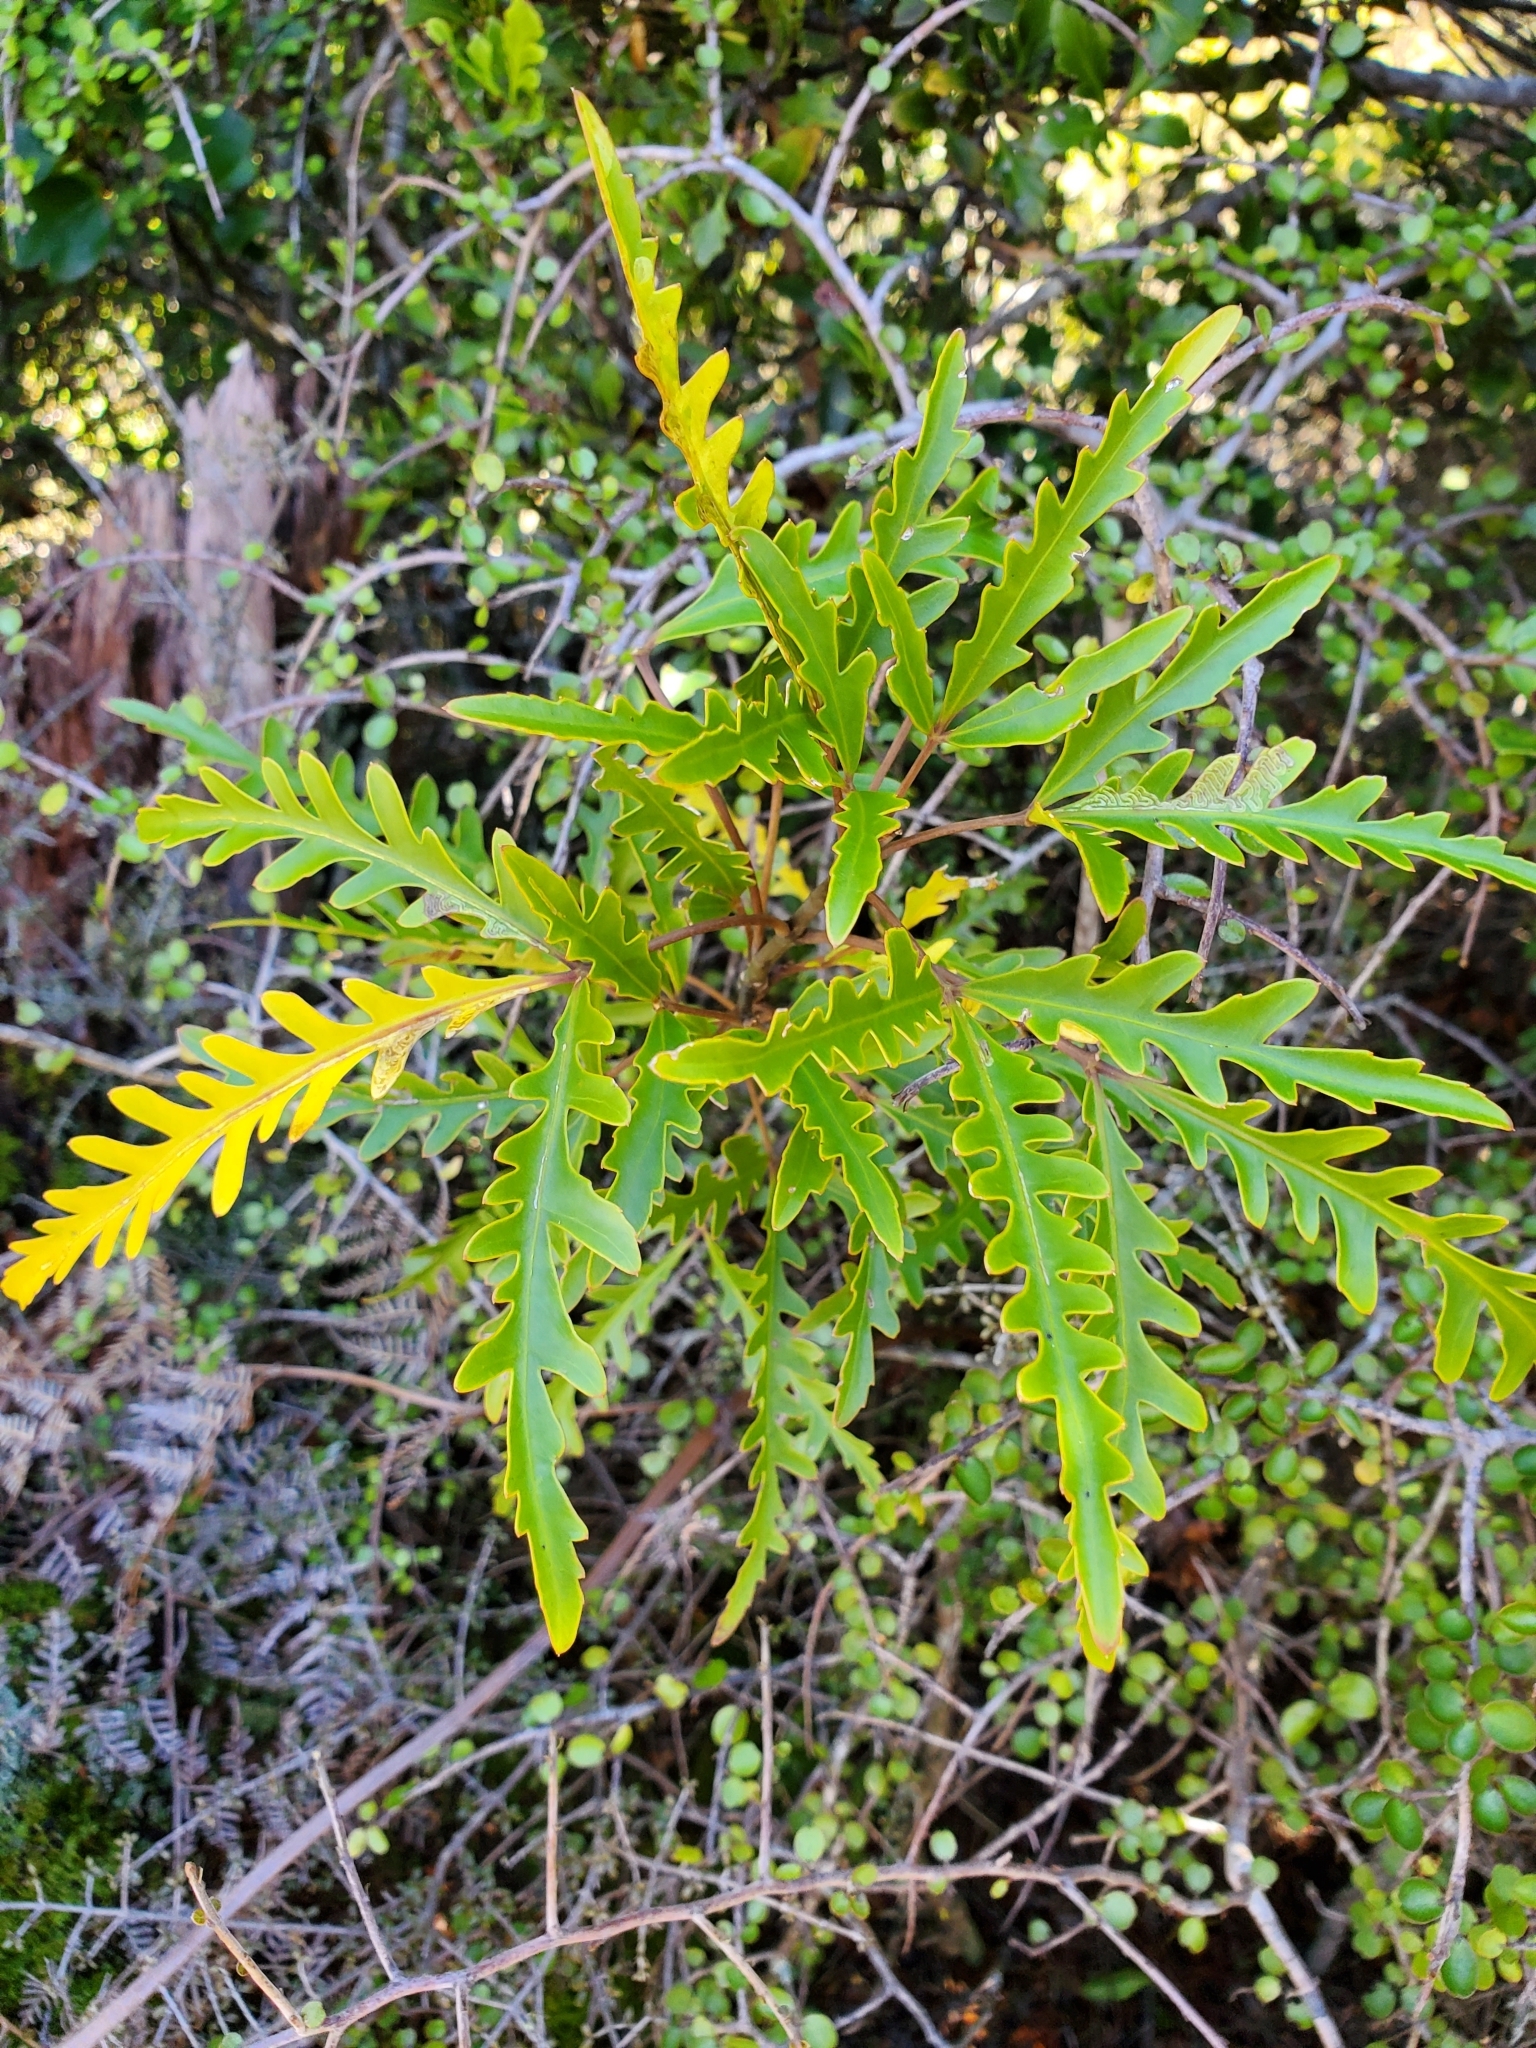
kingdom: Plantae
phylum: Tracheophyta
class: Magnoliopsida
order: Apiales
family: Araliaceae
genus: Raukaua
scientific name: Raukaua simplex
